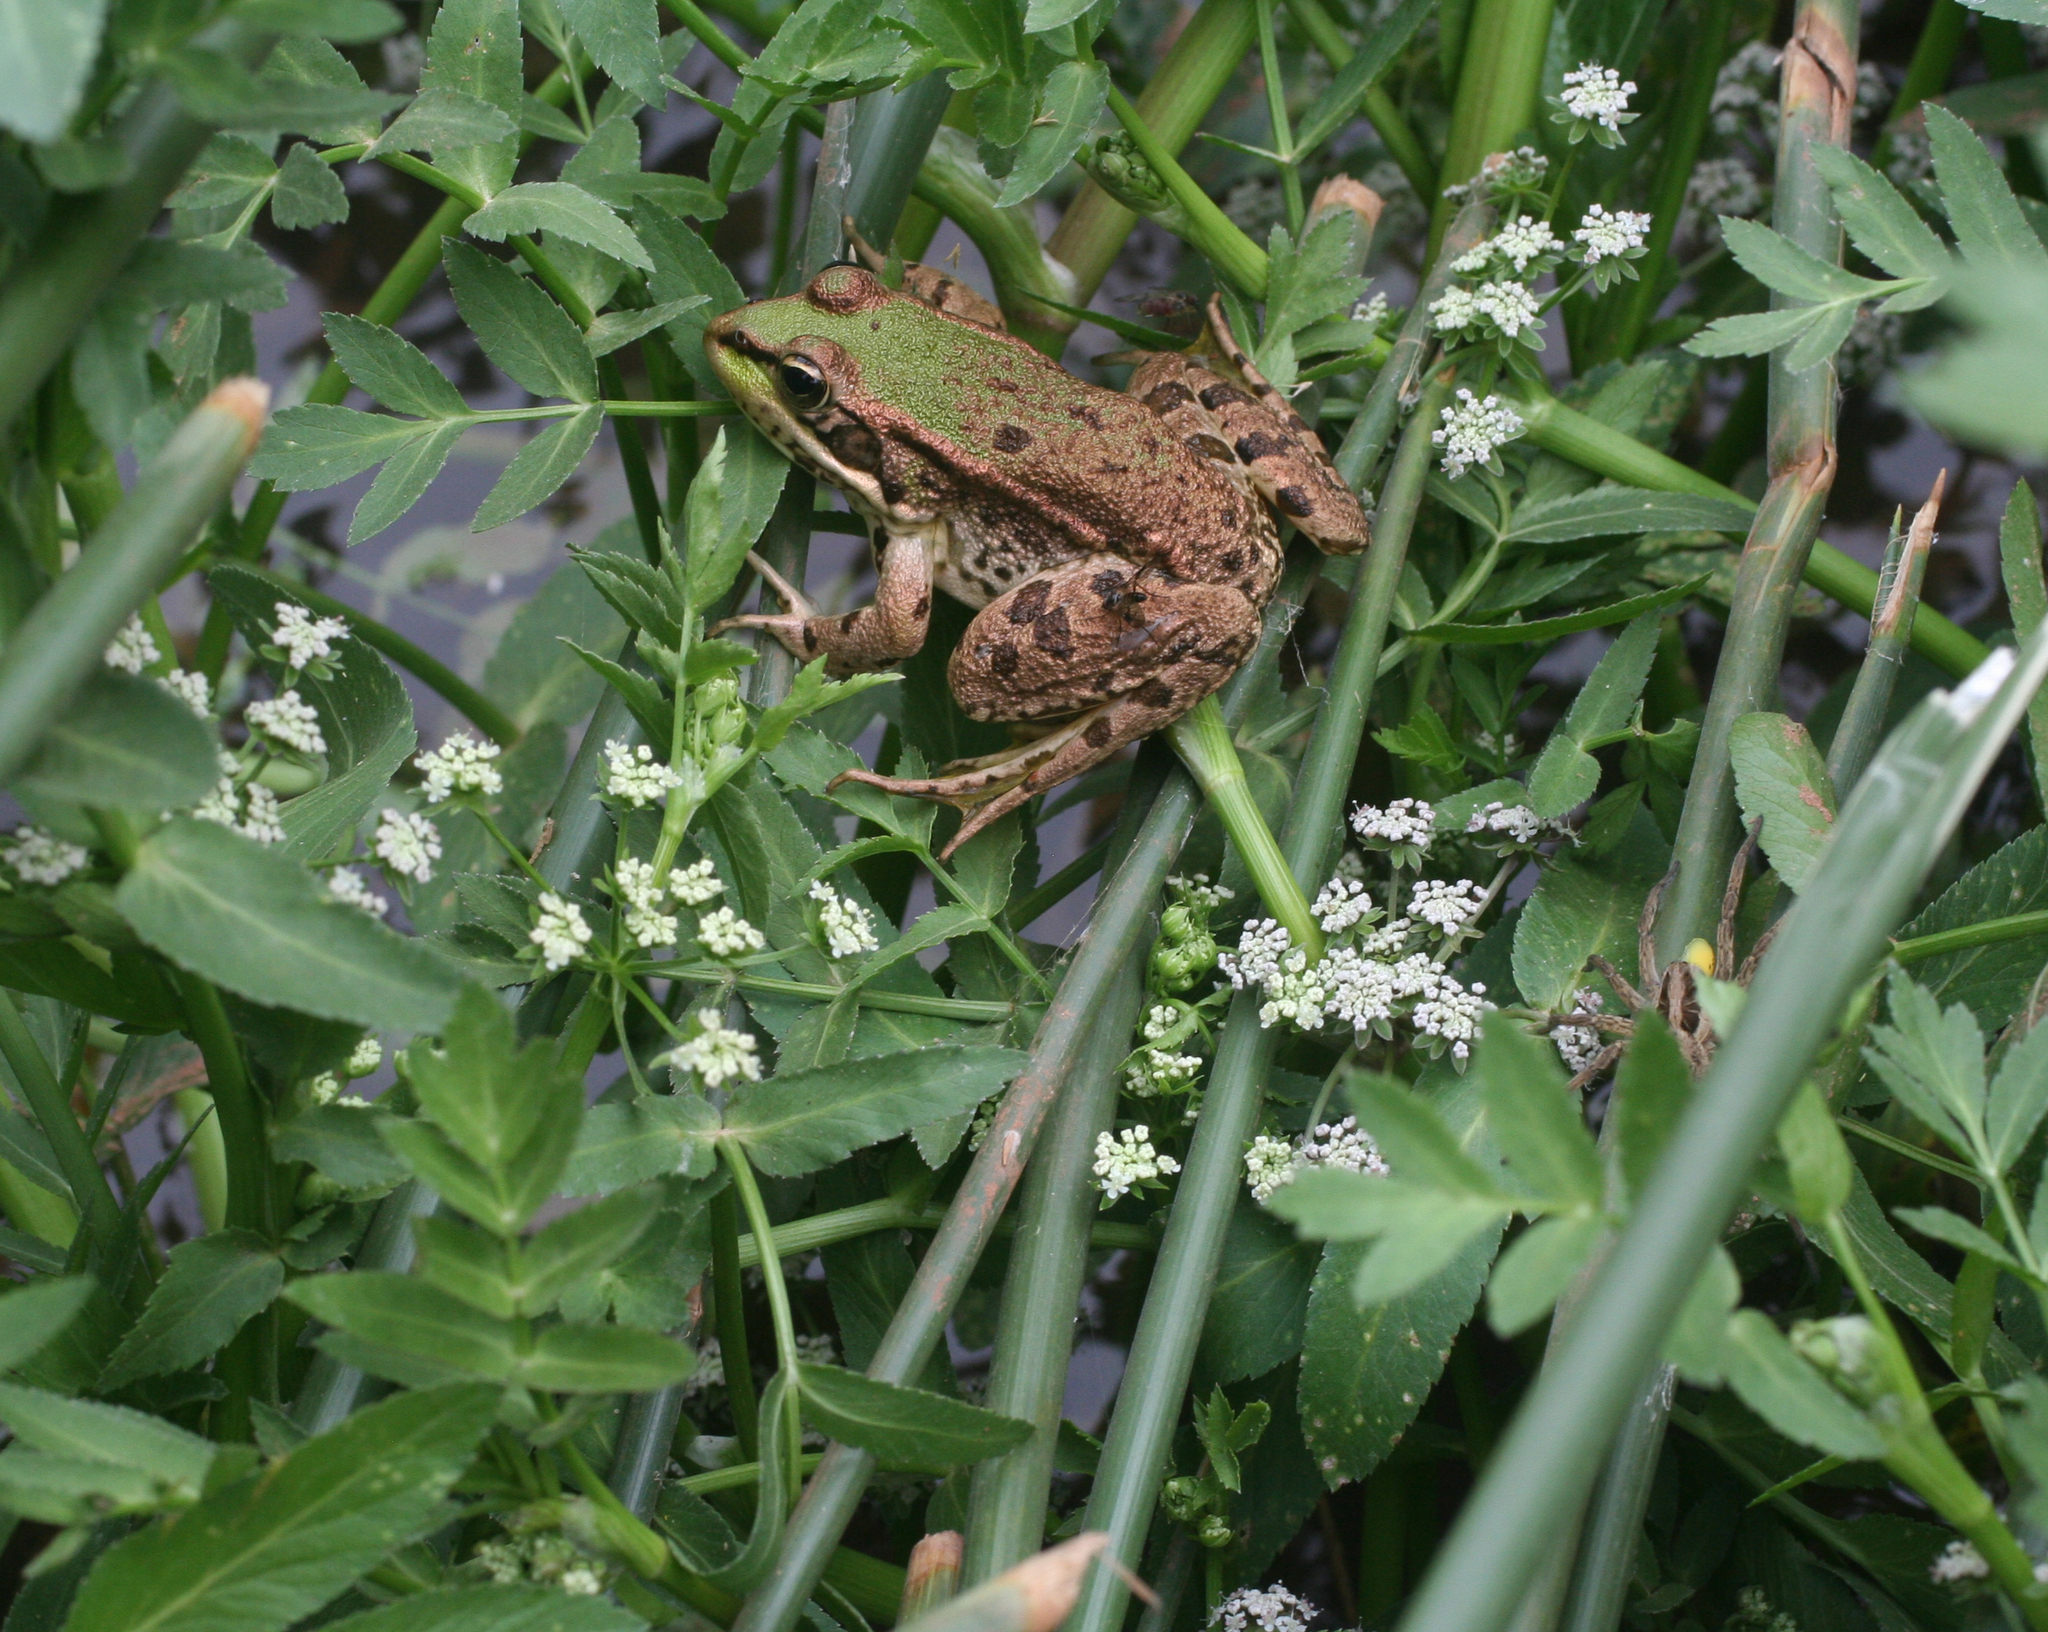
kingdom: Animalia
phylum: Chordata
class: Amphibia
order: Anura
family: Ranidae
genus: Pelophylax
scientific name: Pelophylax saharicus
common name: Sahara frog
